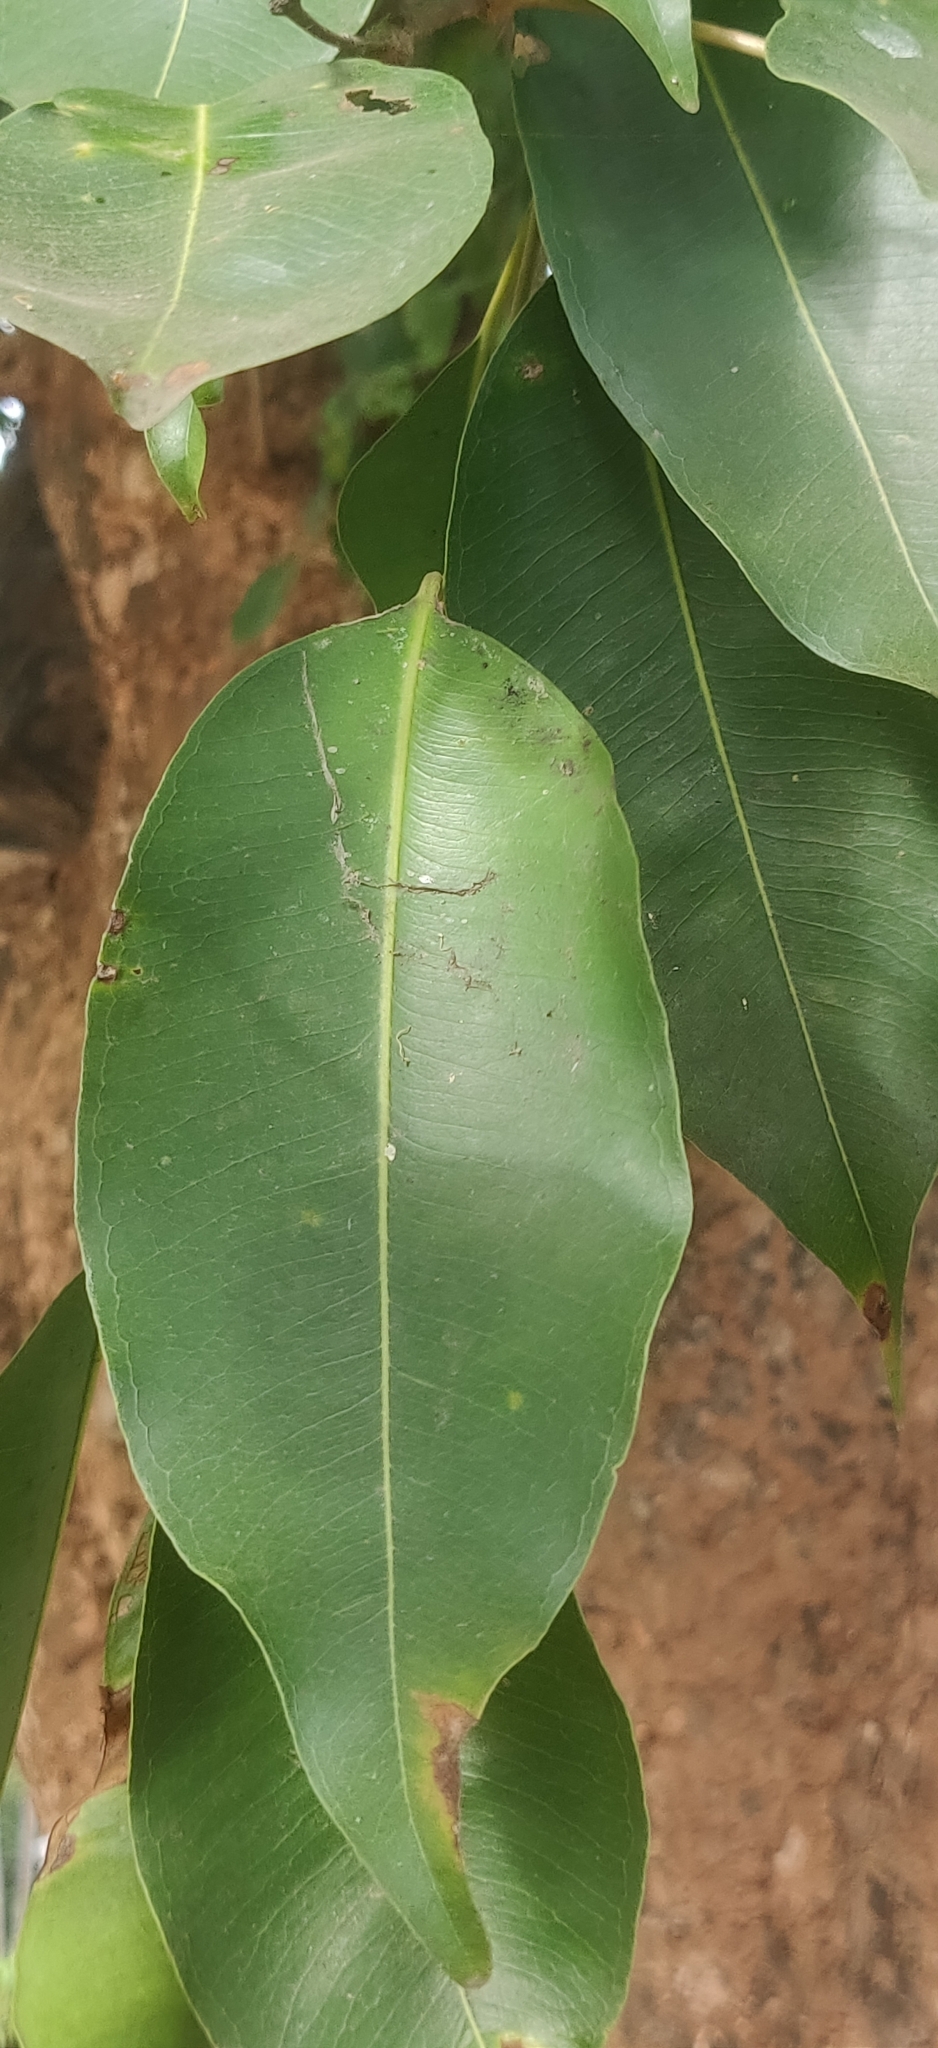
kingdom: Plantae
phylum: Tracheophyta
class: Magnoliopsida
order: Myrtales
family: Myrtaceae
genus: Syzygium
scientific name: Syzygium cumini
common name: Java plum
